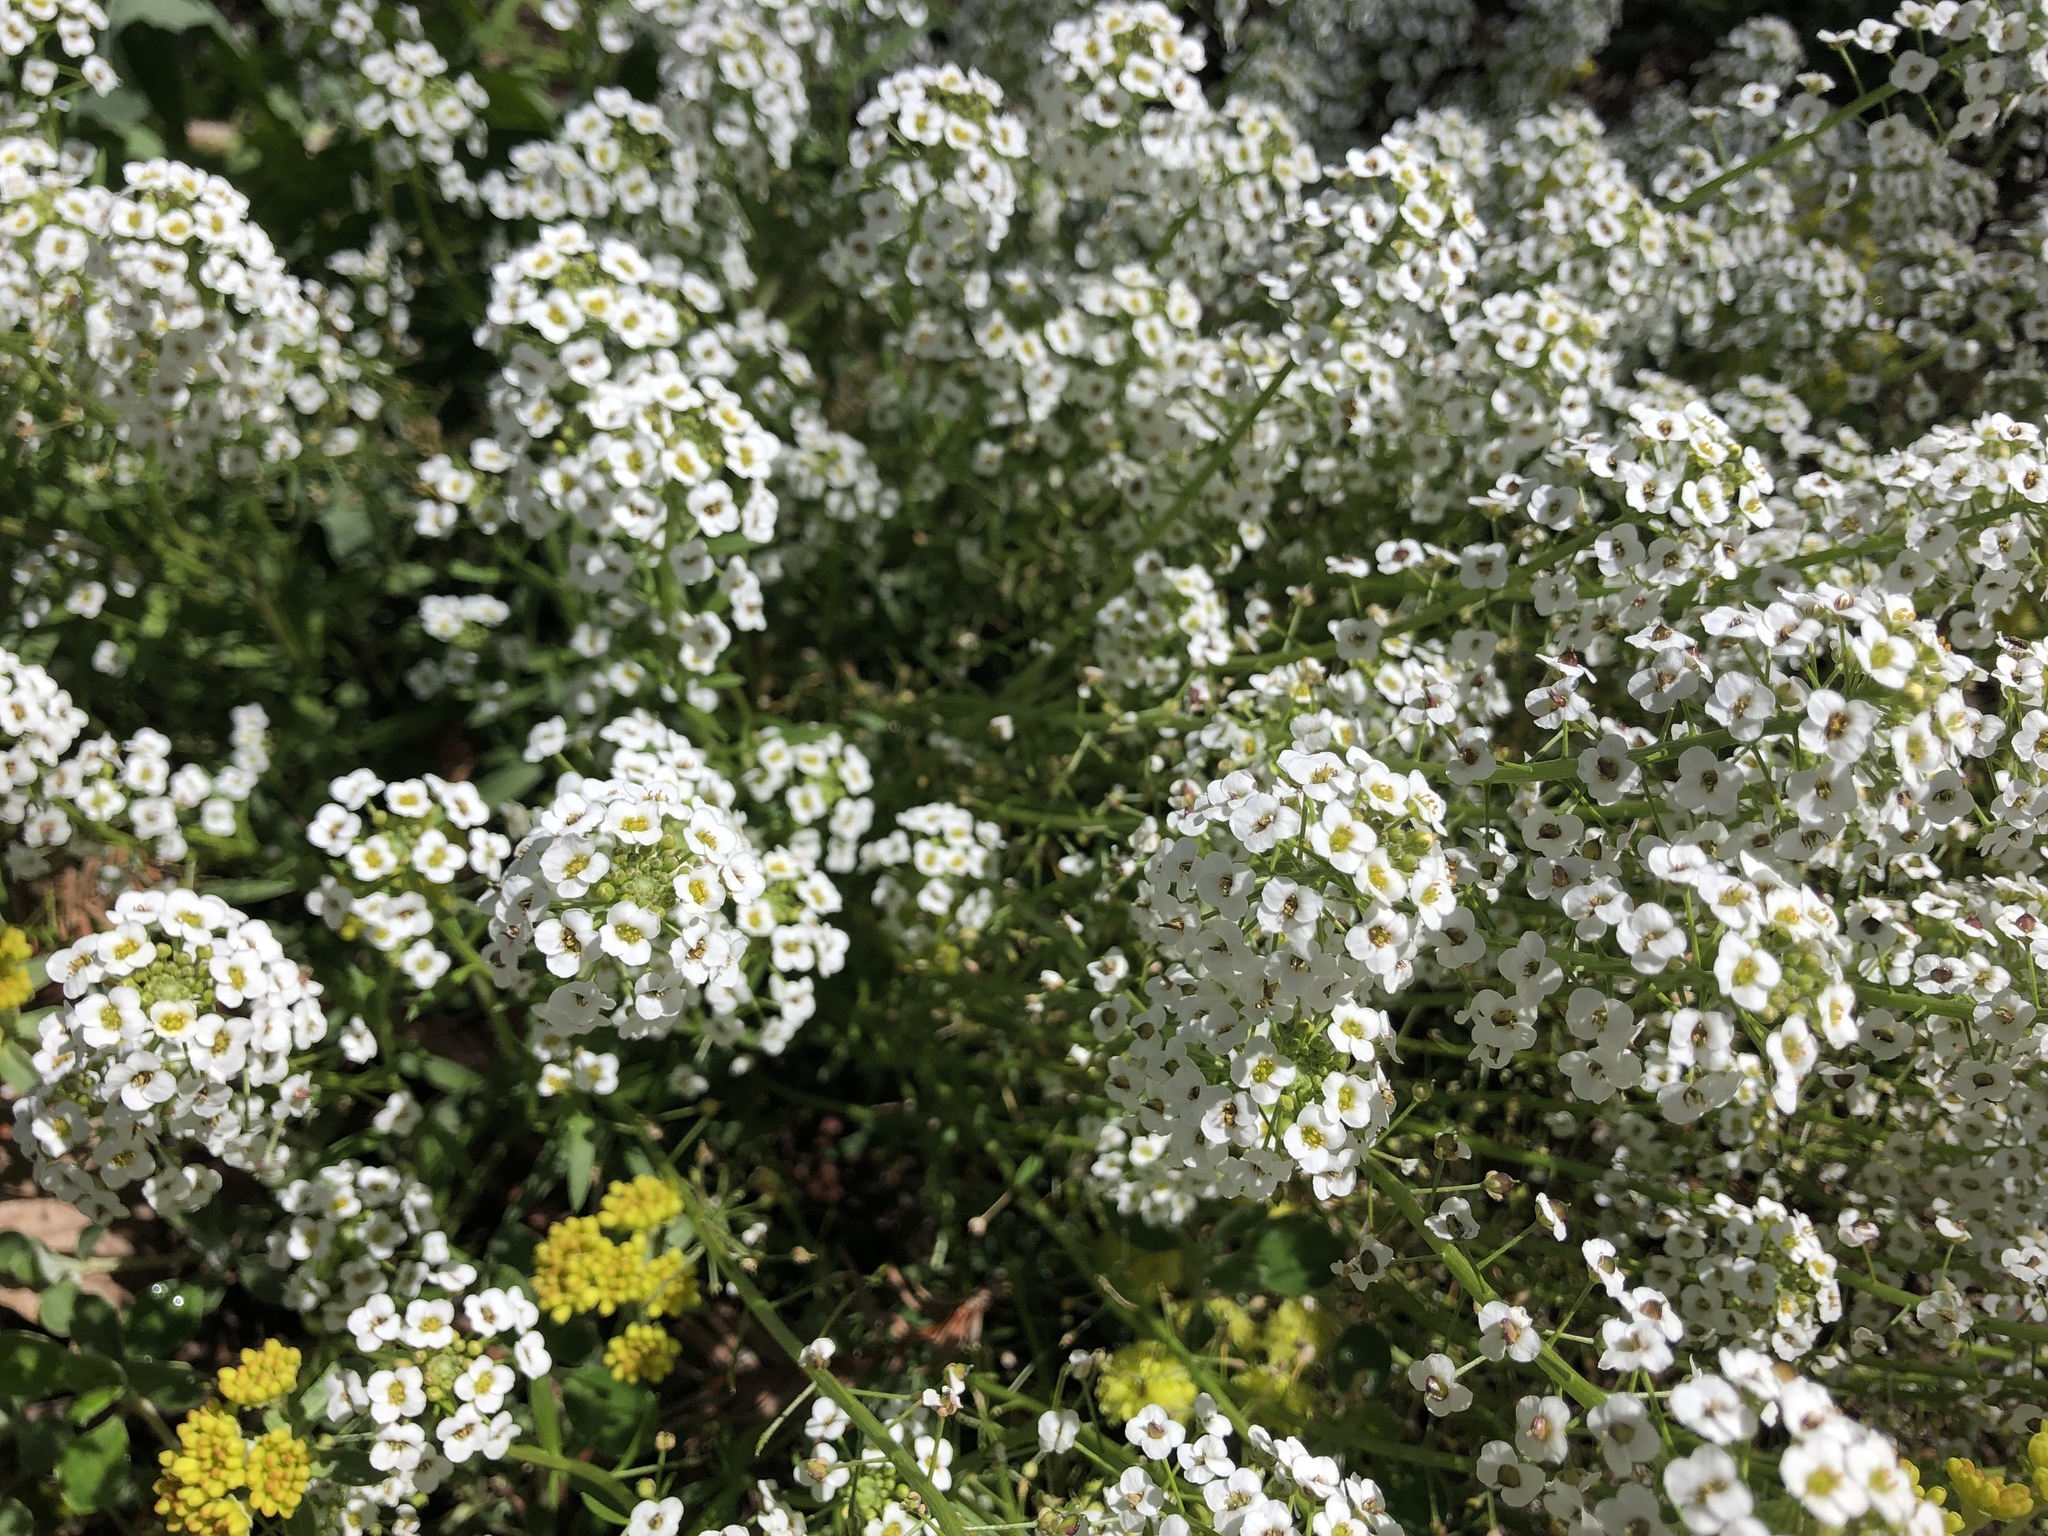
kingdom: Plantae
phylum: Tracheophyta
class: Magnoliopsida
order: Brassicales
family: Brassicaceae
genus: Lobularia
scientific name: Lobularia maritima
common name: Sweet alison
